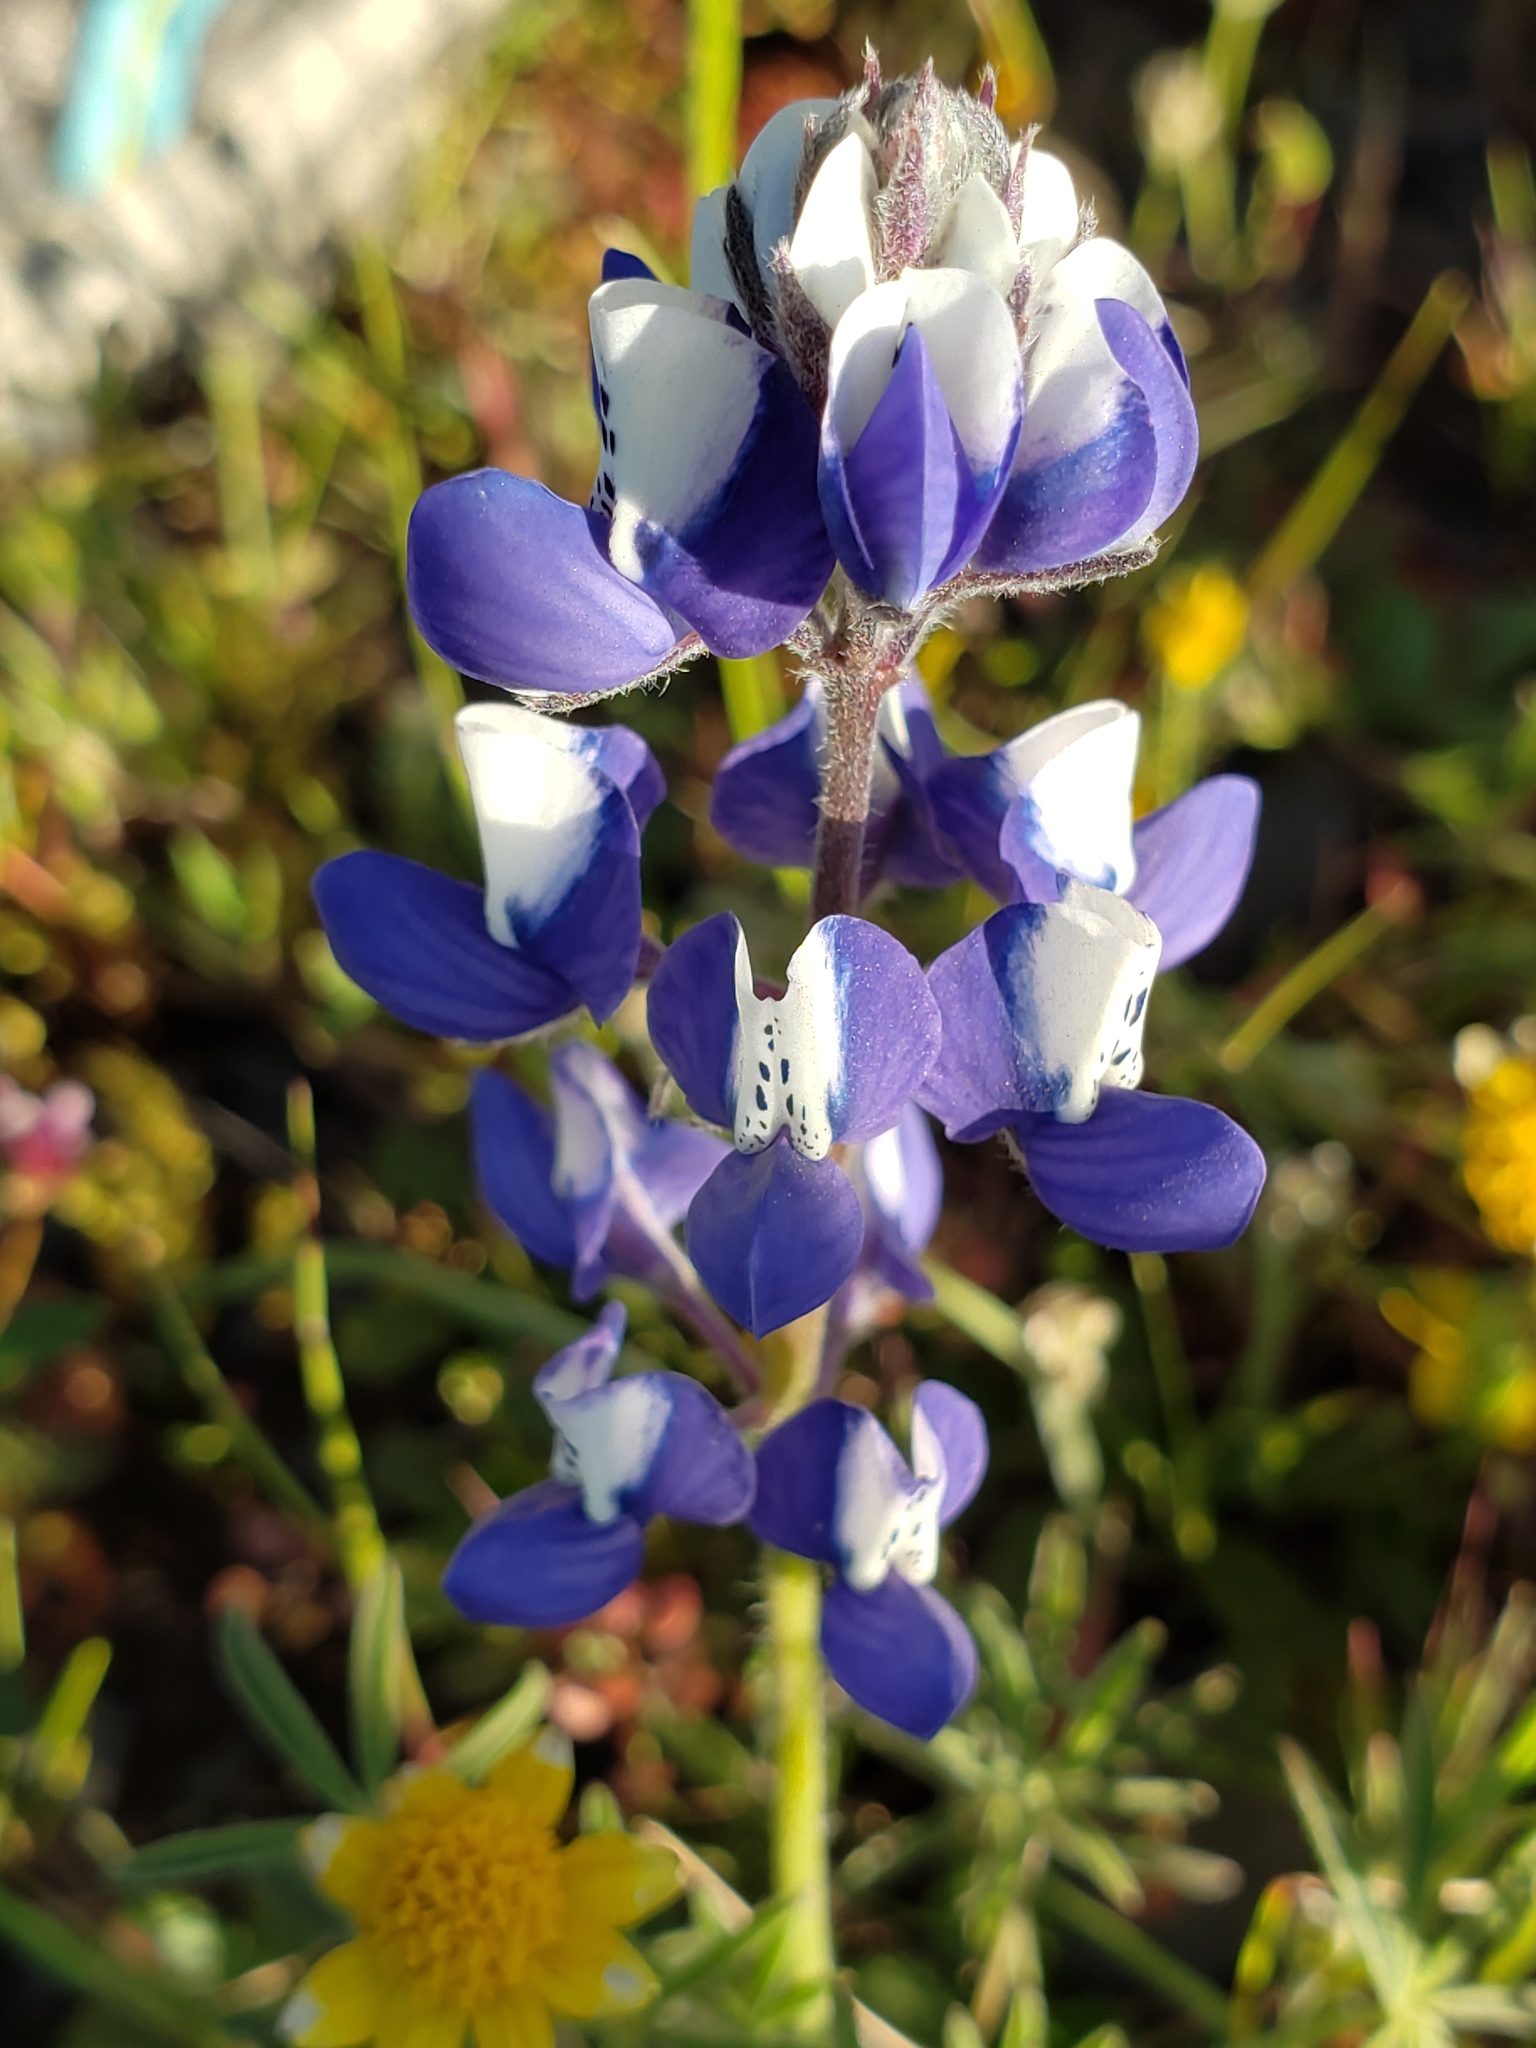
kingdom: Plantae
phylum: Tracheophyta
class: Magnoliopsida
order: Fabales
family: Fabaceae
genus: Lupinus
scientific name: Lupinus nanus
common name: Orean blue lupin
